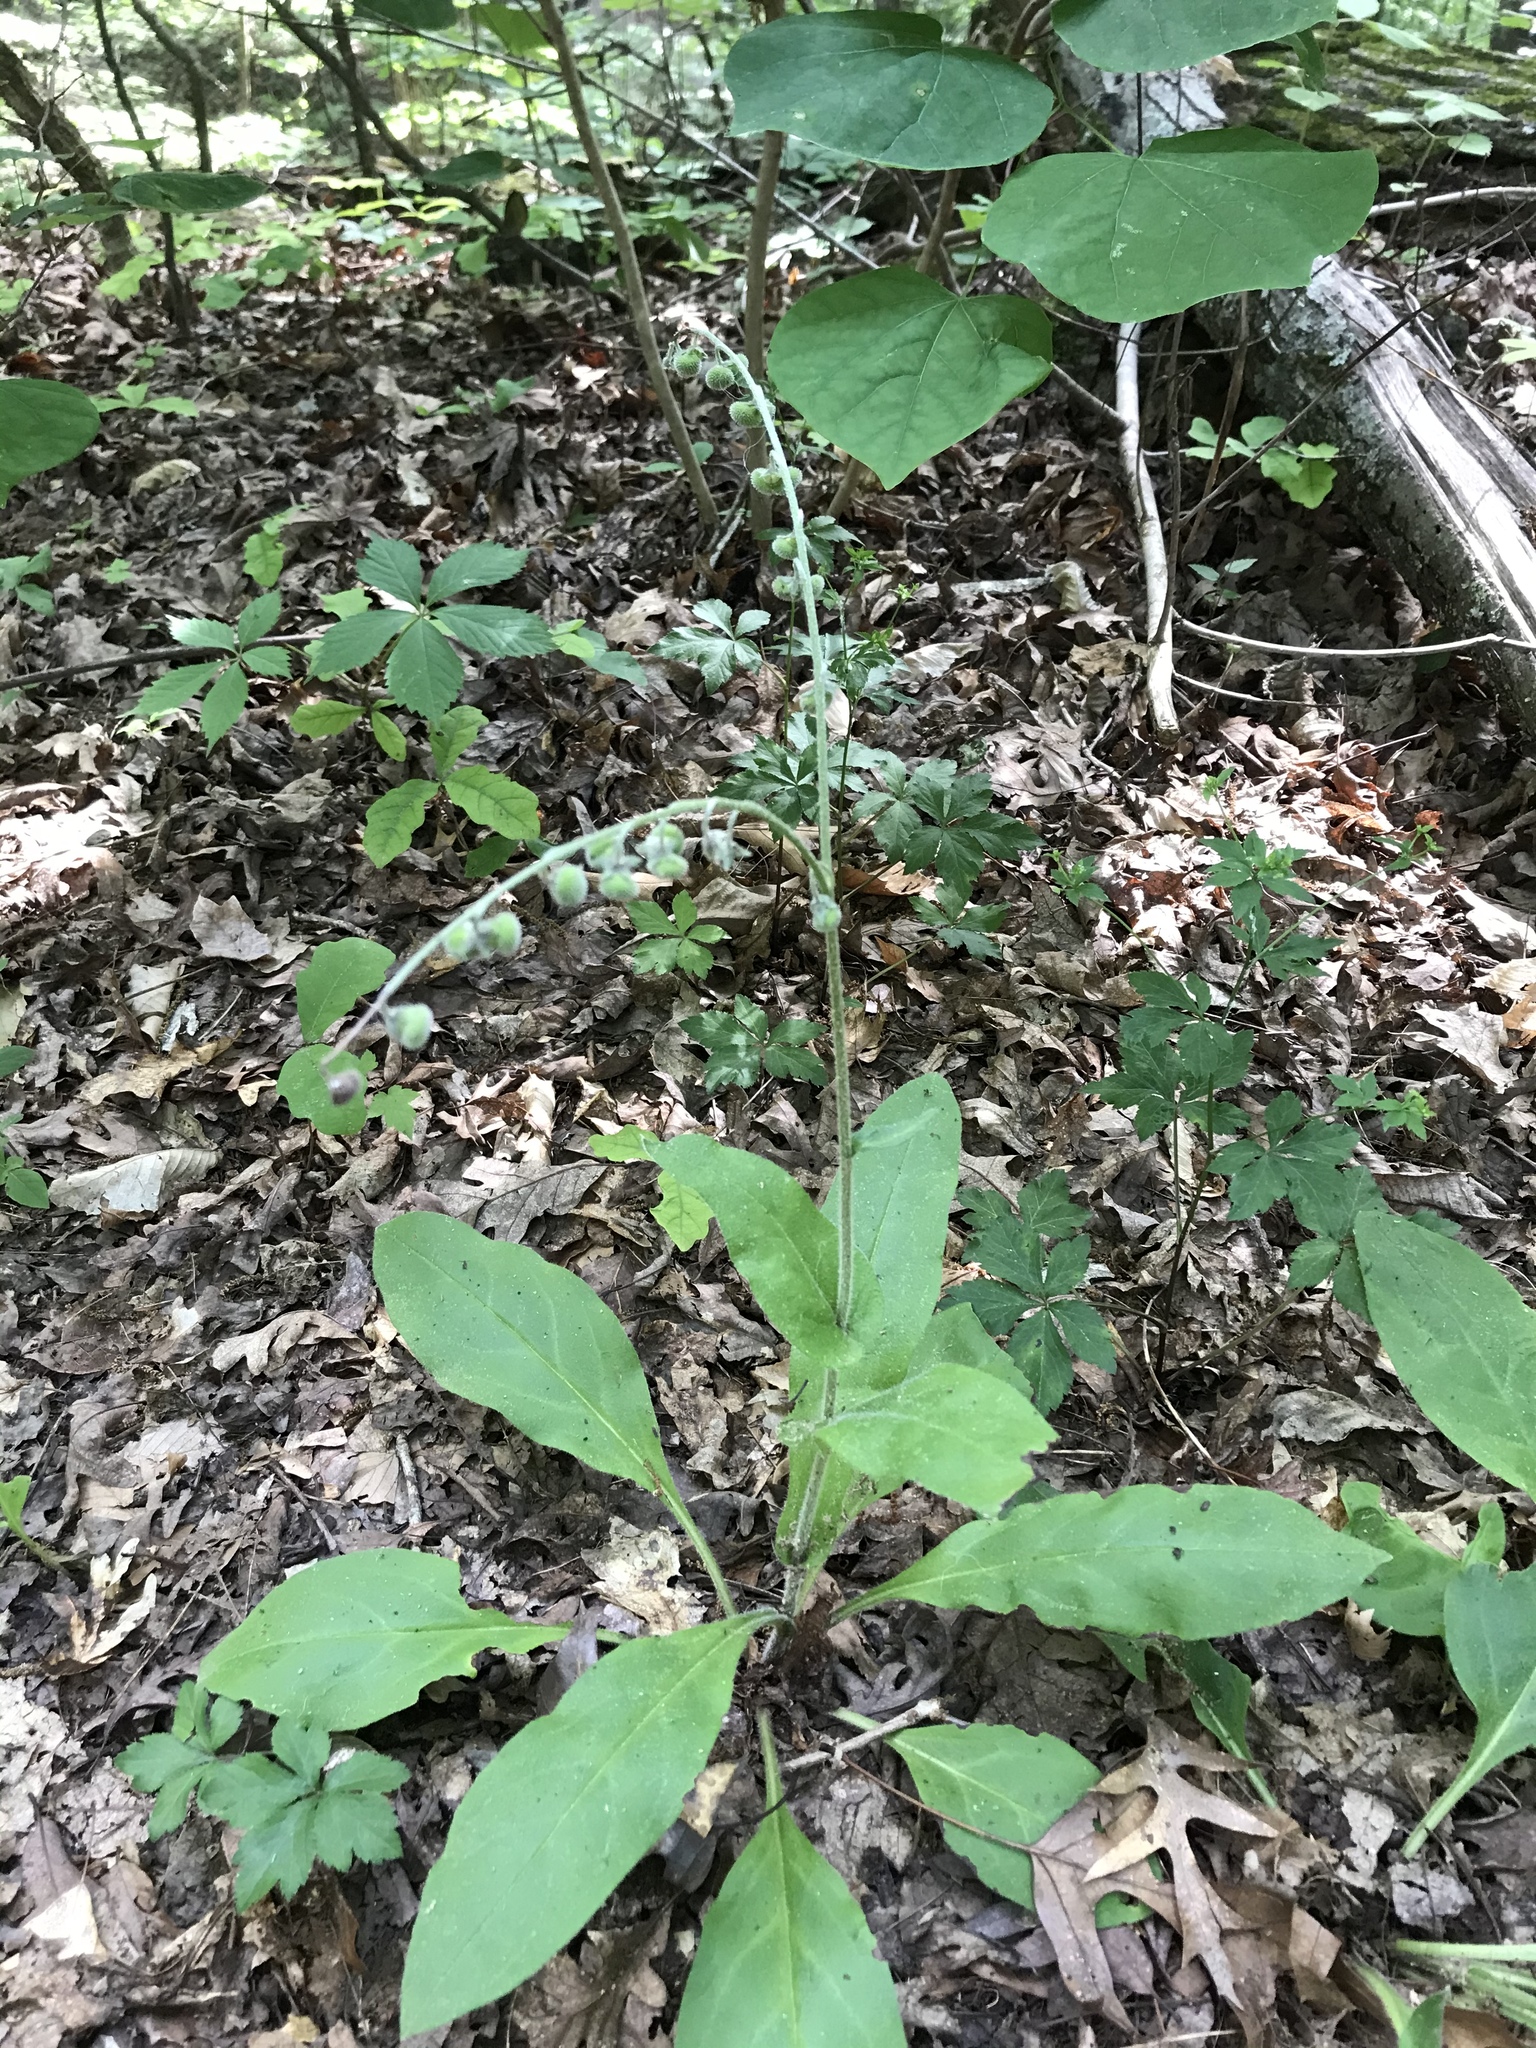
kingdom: Plantae
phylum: Tracheophyta
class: Magnoliopsida
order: Boraginales
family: Boraginaceae
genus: Andersonglossum
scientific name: Andersonglossum virginianum
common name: Wild comfrey
